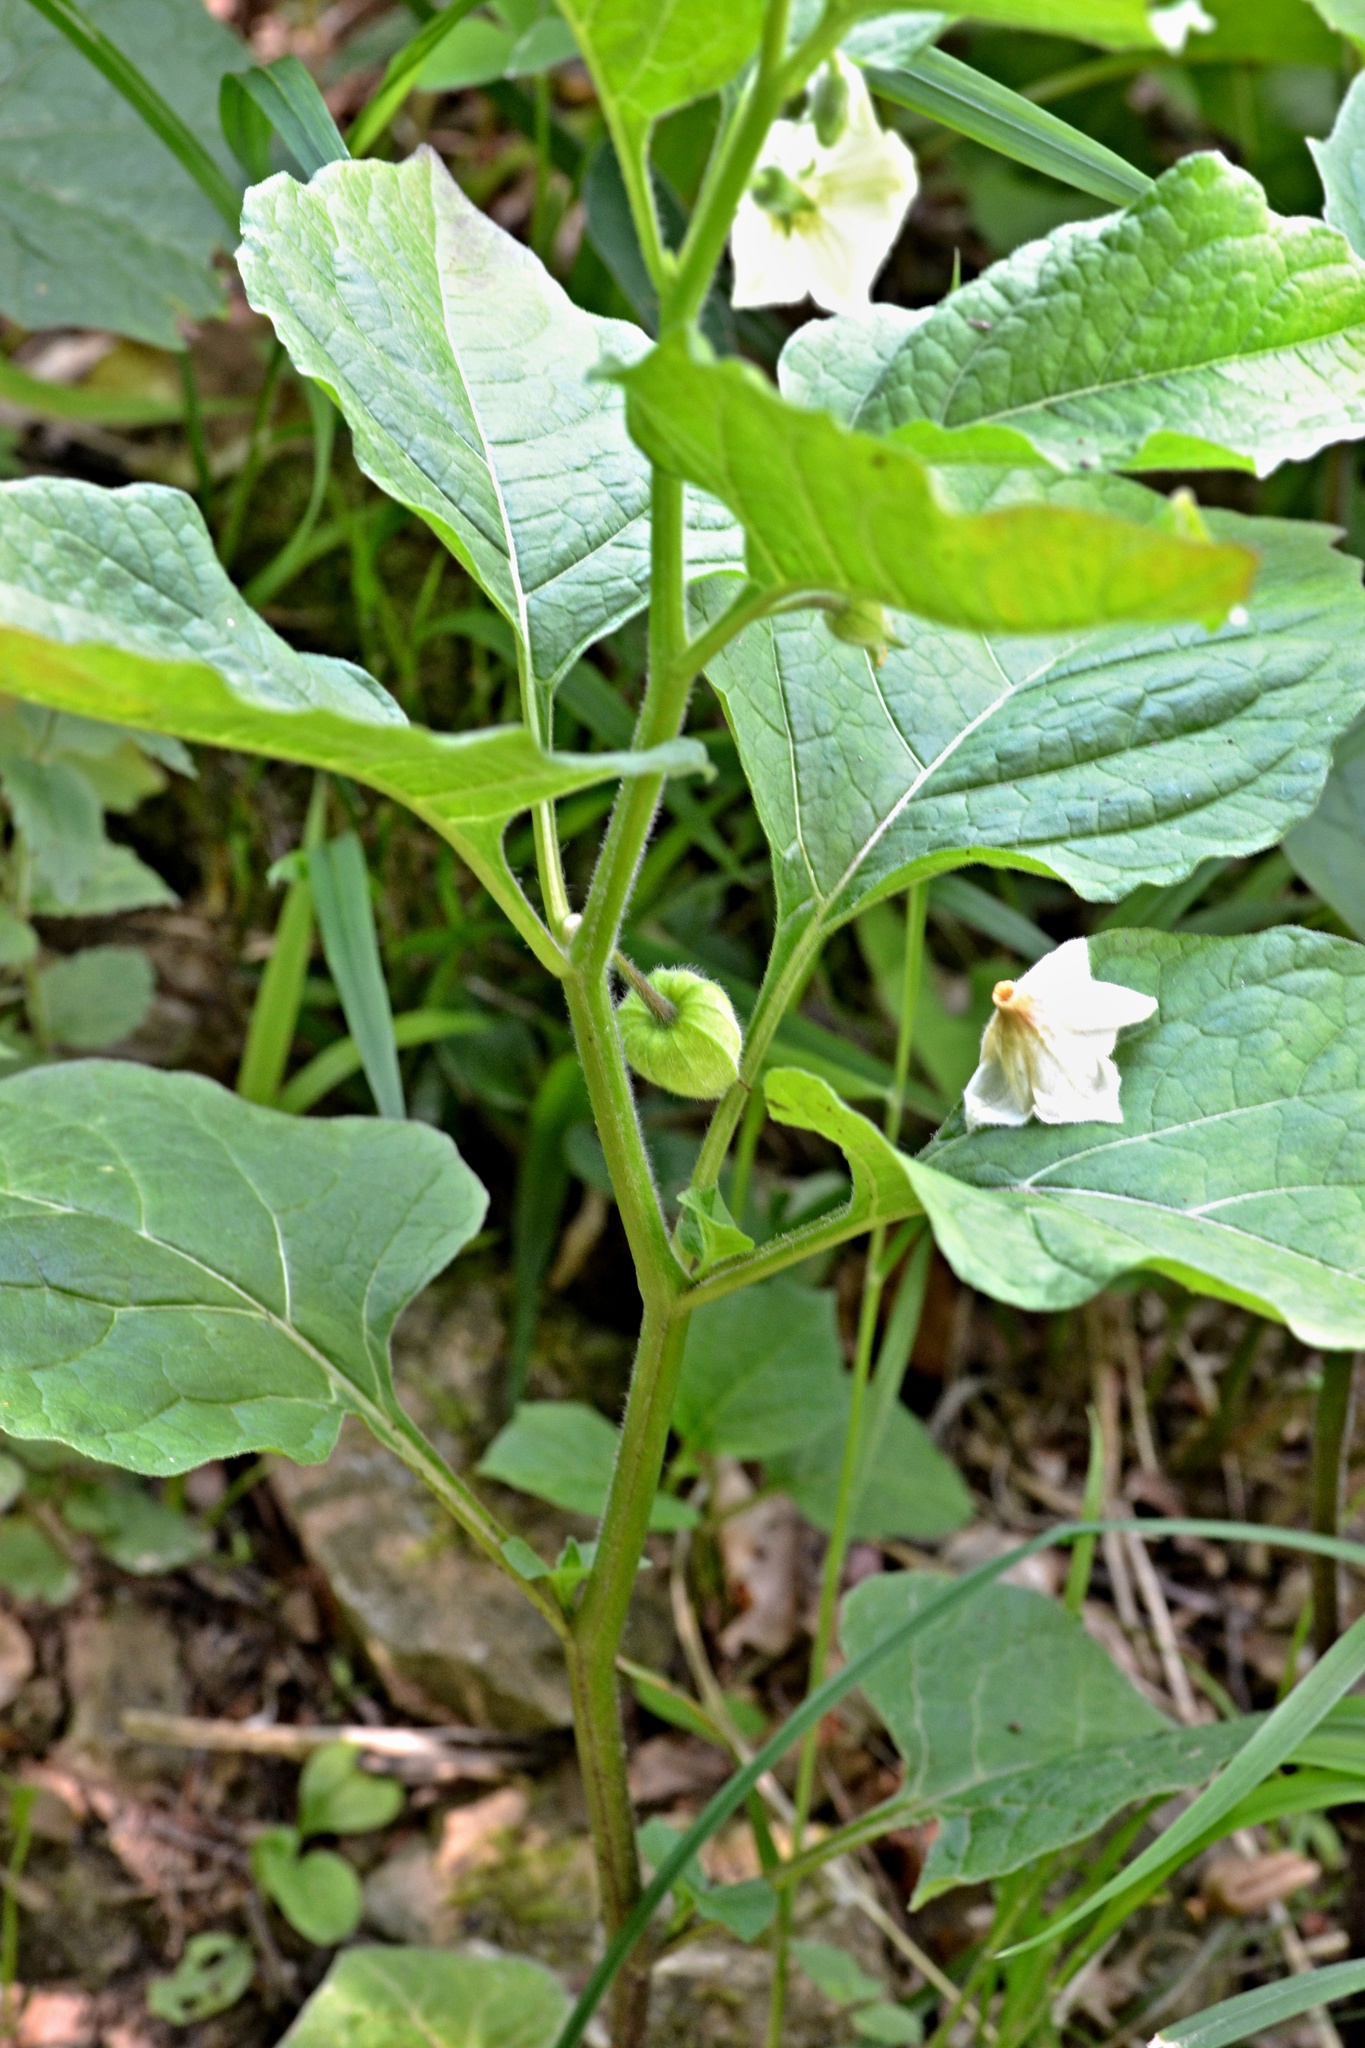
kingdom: Plantae
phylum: Tracheophyta
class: Magnoliopsida
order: Solanales
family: Solanaceae
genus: Alkekengi
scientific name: Alkekengi officinarum
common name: Japanese-lantern
